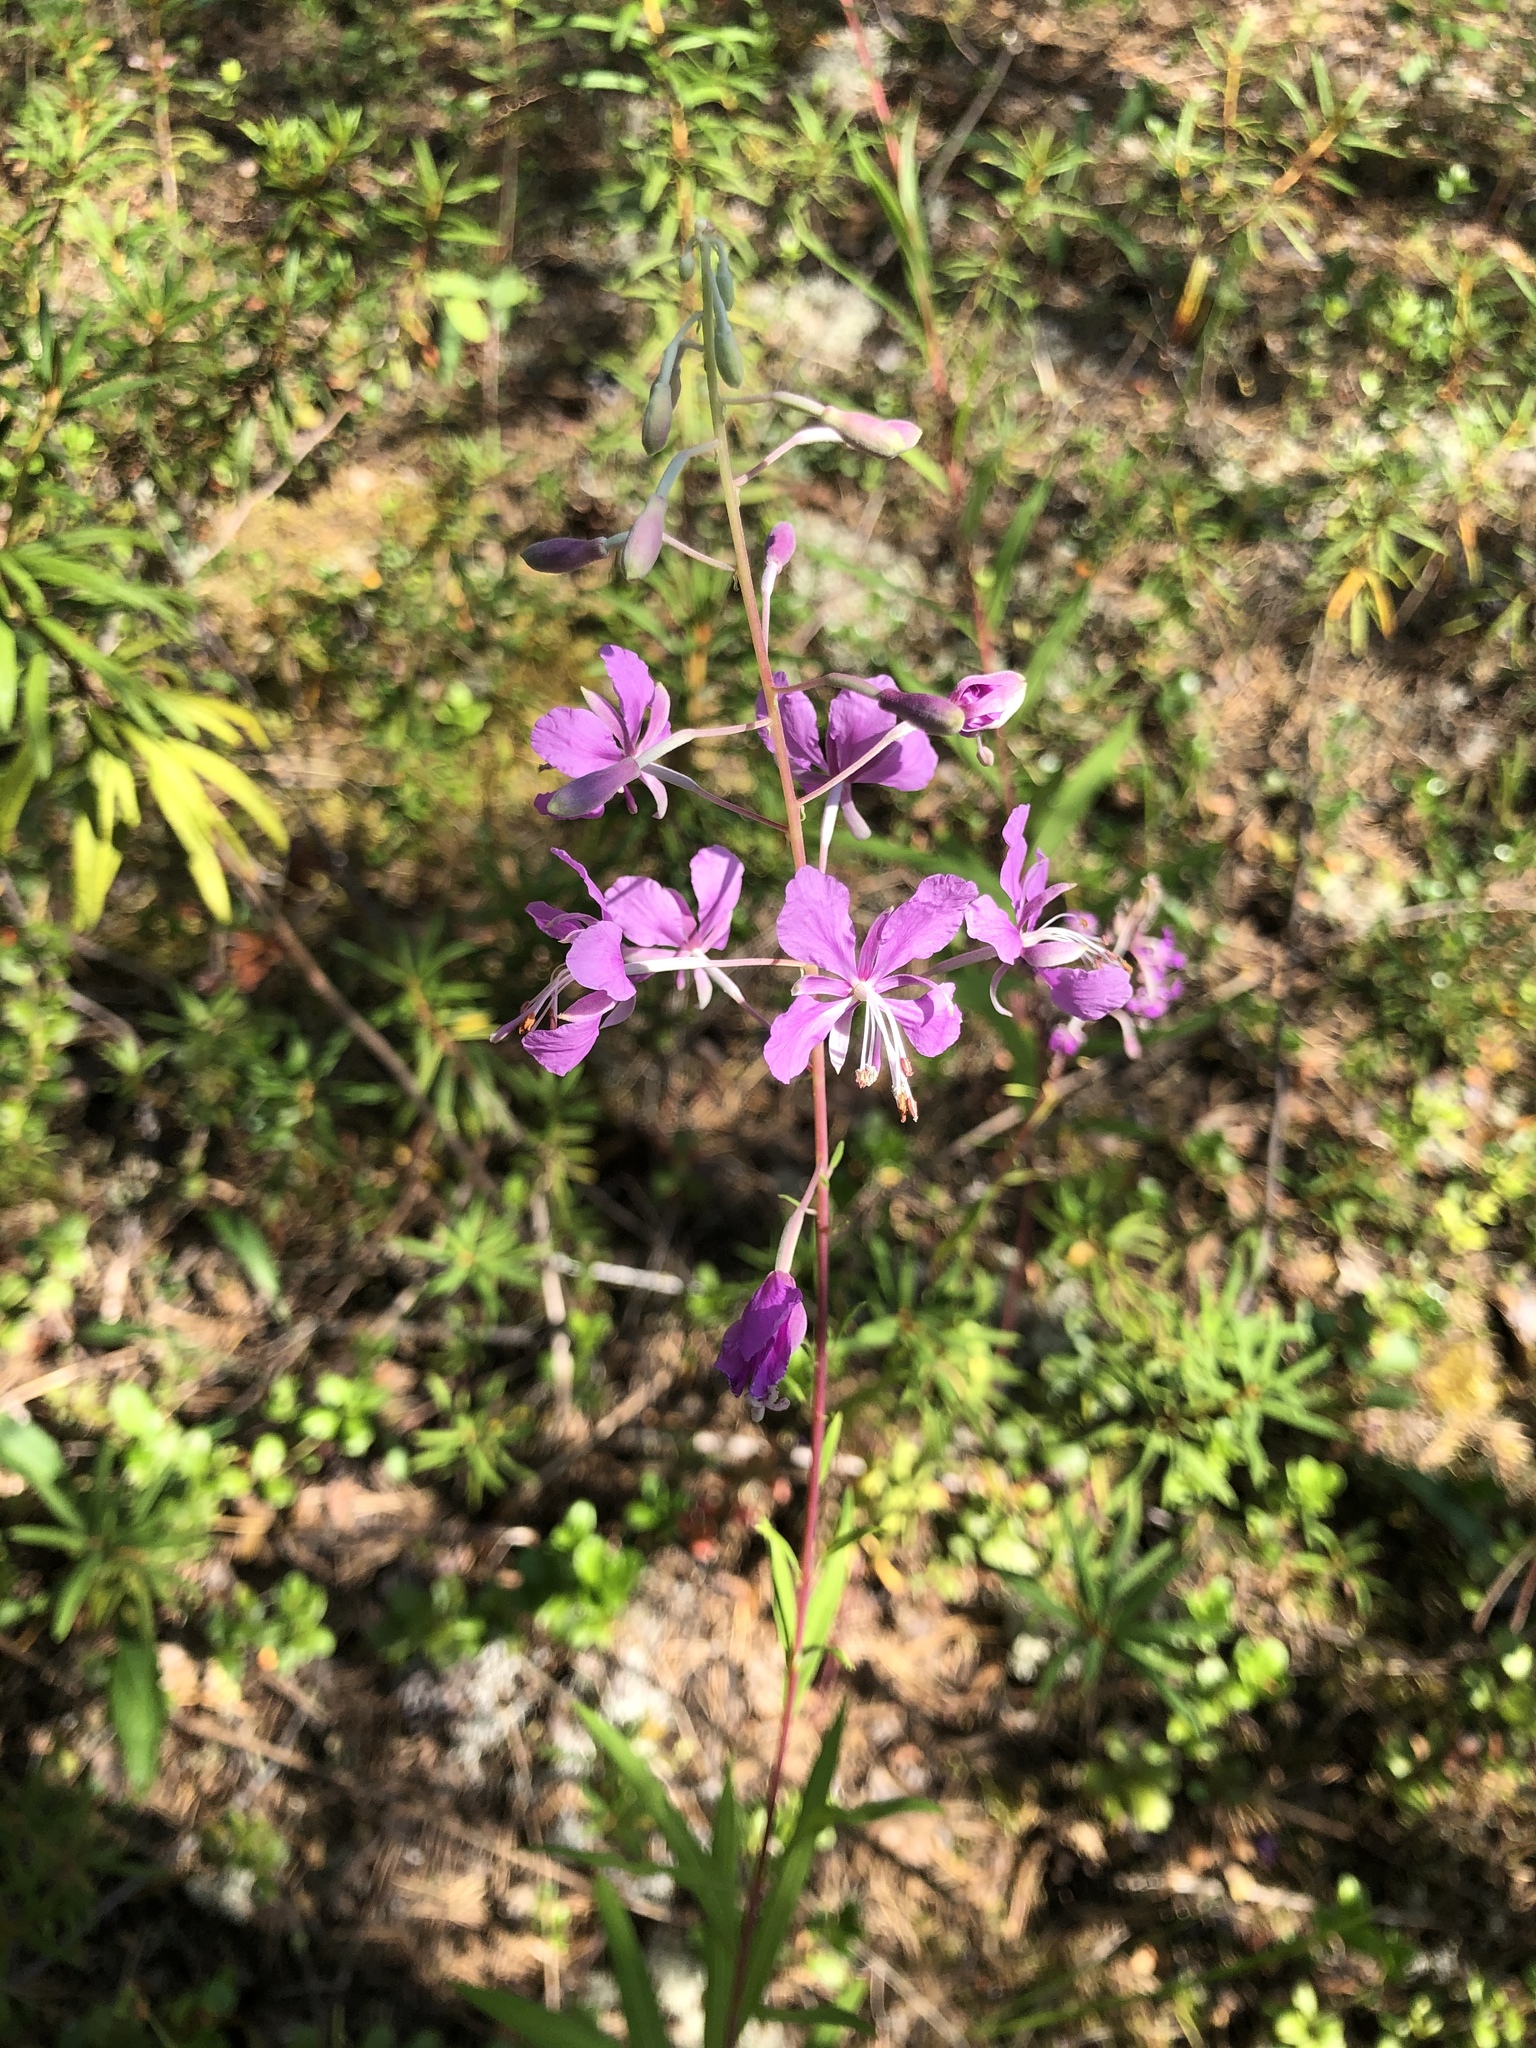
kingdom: Plantae
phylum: Tracheophyta
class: Magnoliopsida
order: Myrtales
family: Onagraceae
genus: Chamaenerion
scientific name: Chamaenerion angustifolium
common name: Fireweed
